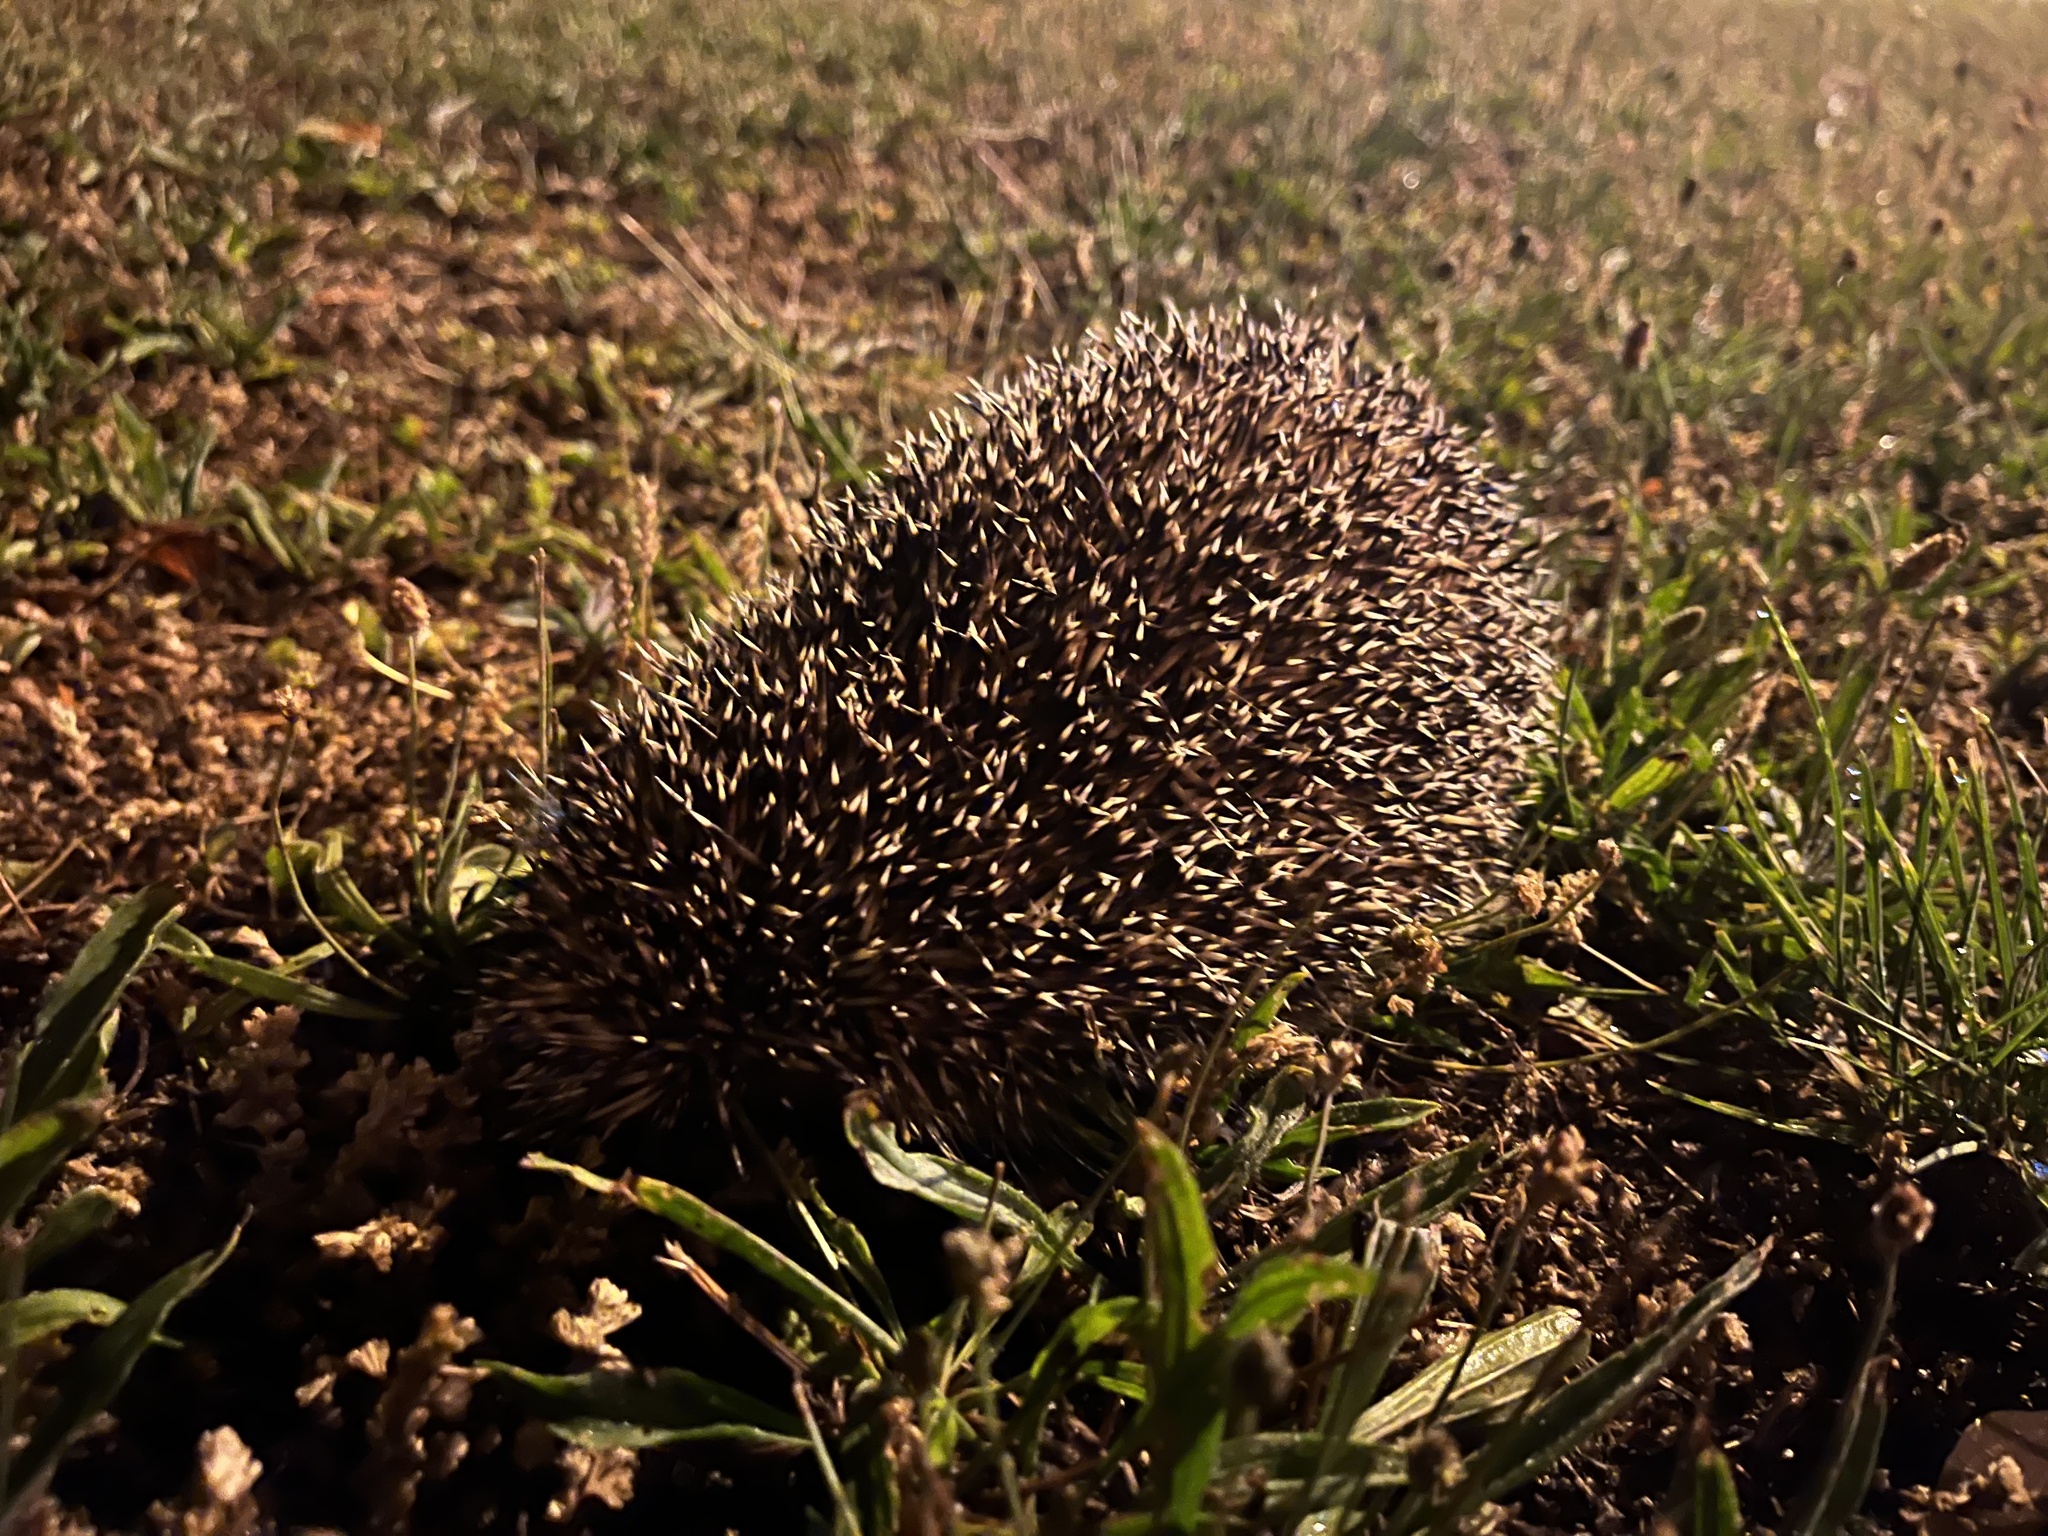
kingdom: Animalia
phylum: Chordata
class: Mammalia
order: Erinaceomorpha
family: Erinaceidae
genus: Erinaceus
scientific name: Erinaceus europaeus
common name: West european hedgehog
